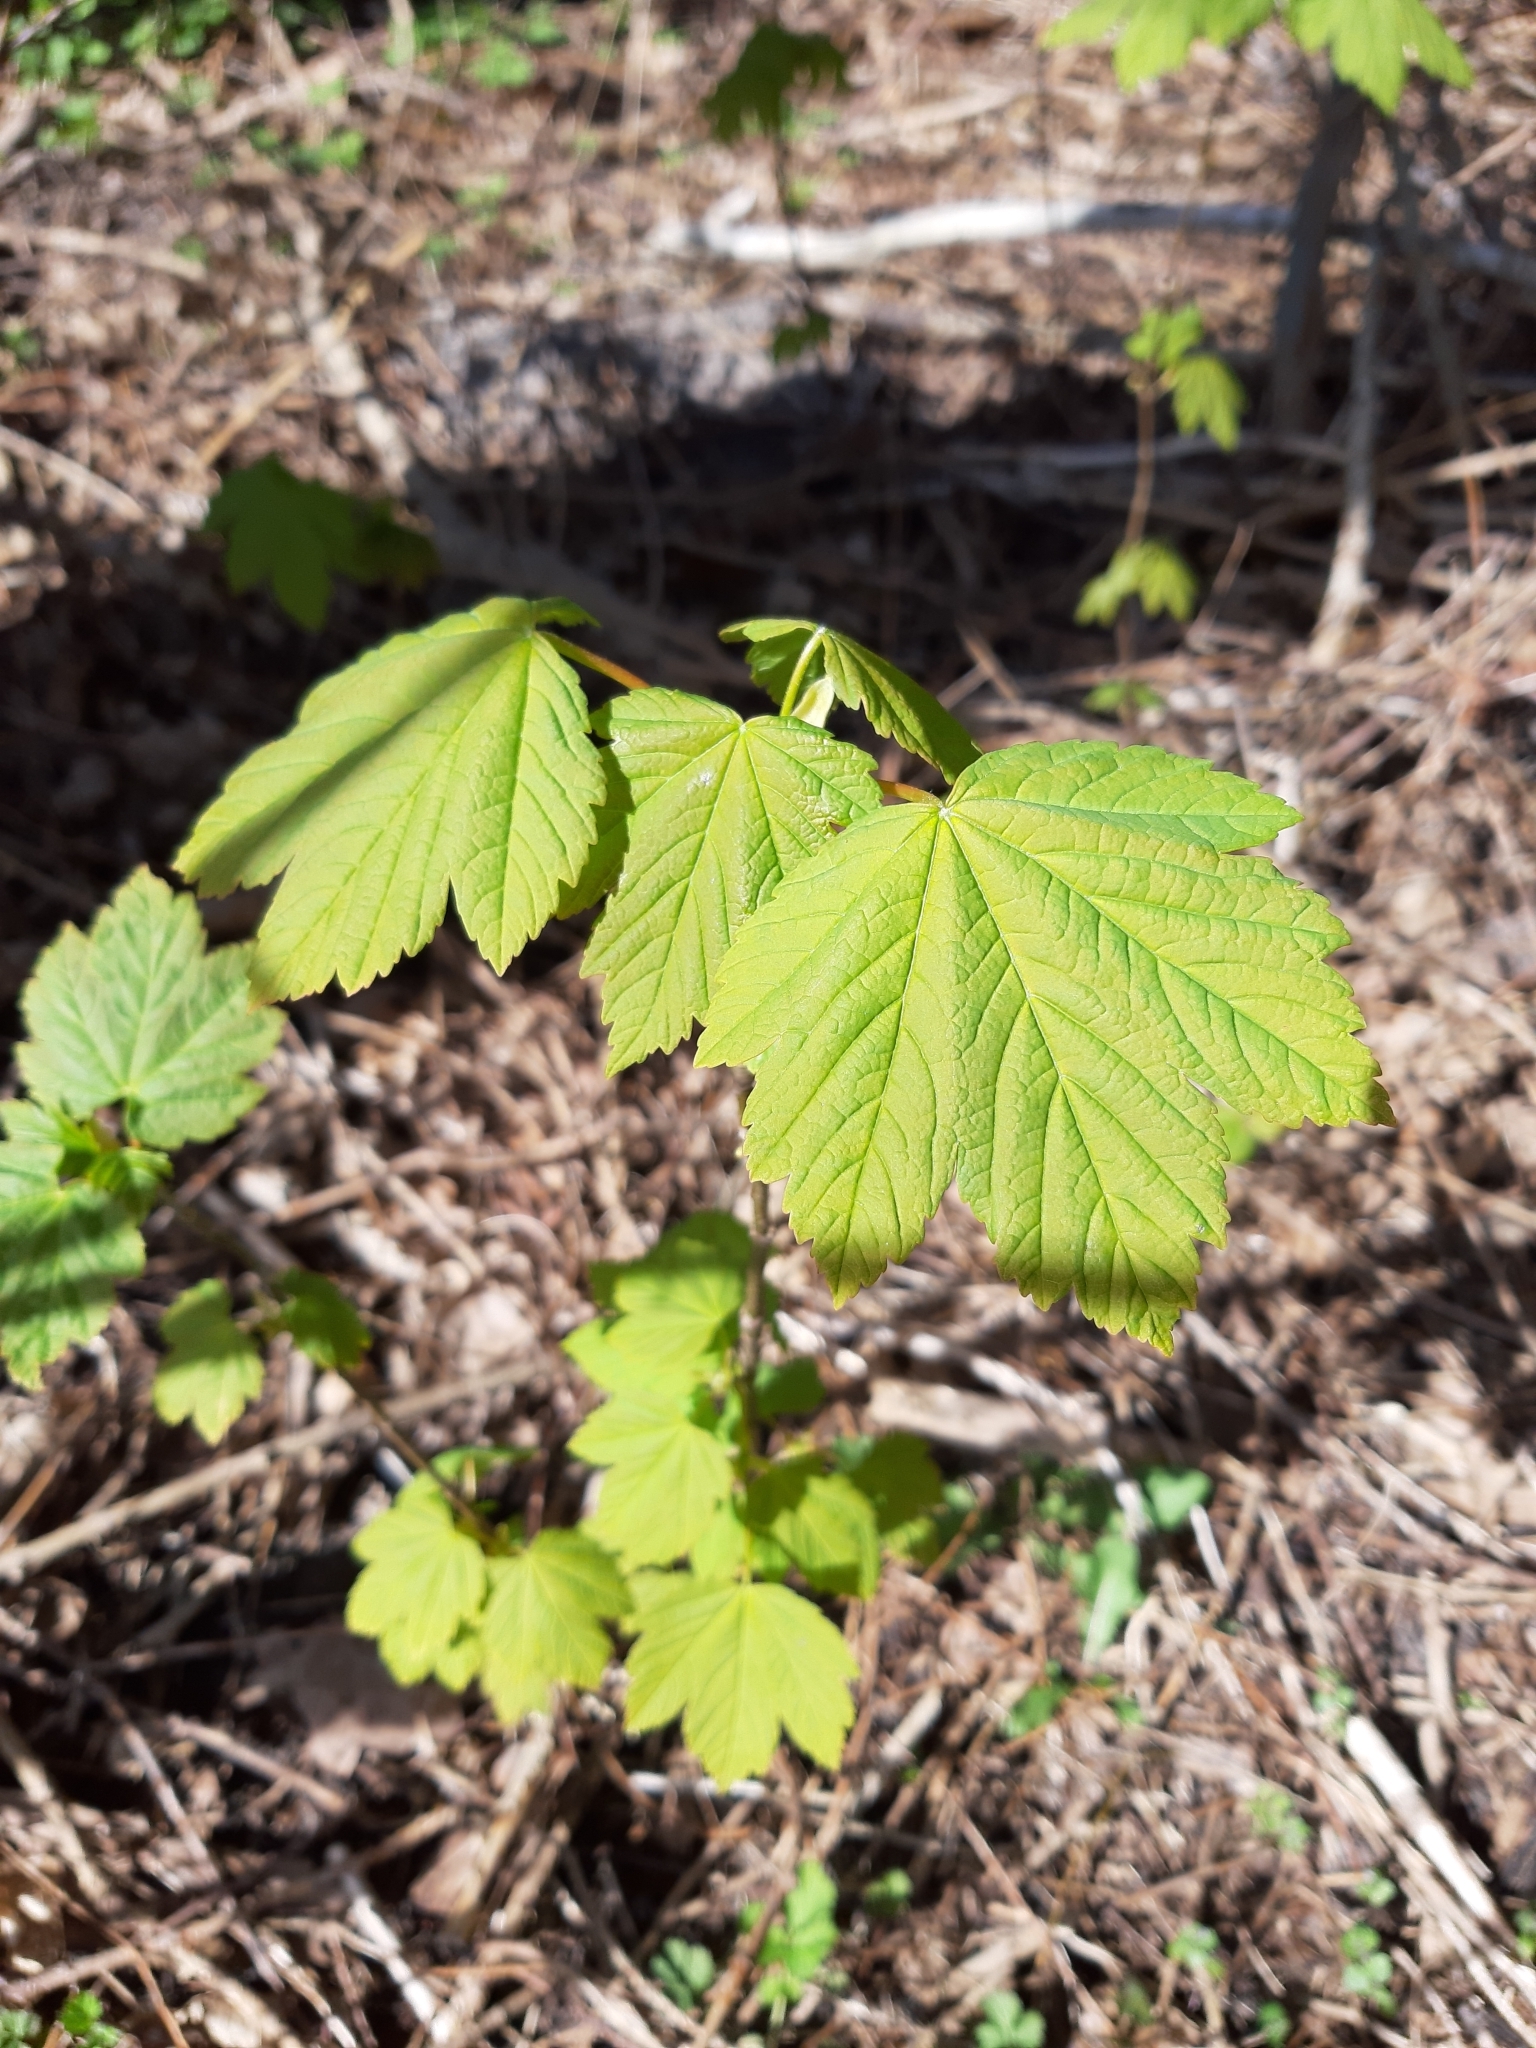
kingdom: Plantae
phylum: Tracheophyta
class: Magnoliopsida
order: Sapindales
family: Sapindaceae
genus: Acer
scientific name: Acer pseudoplatanus
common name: Sycamore
